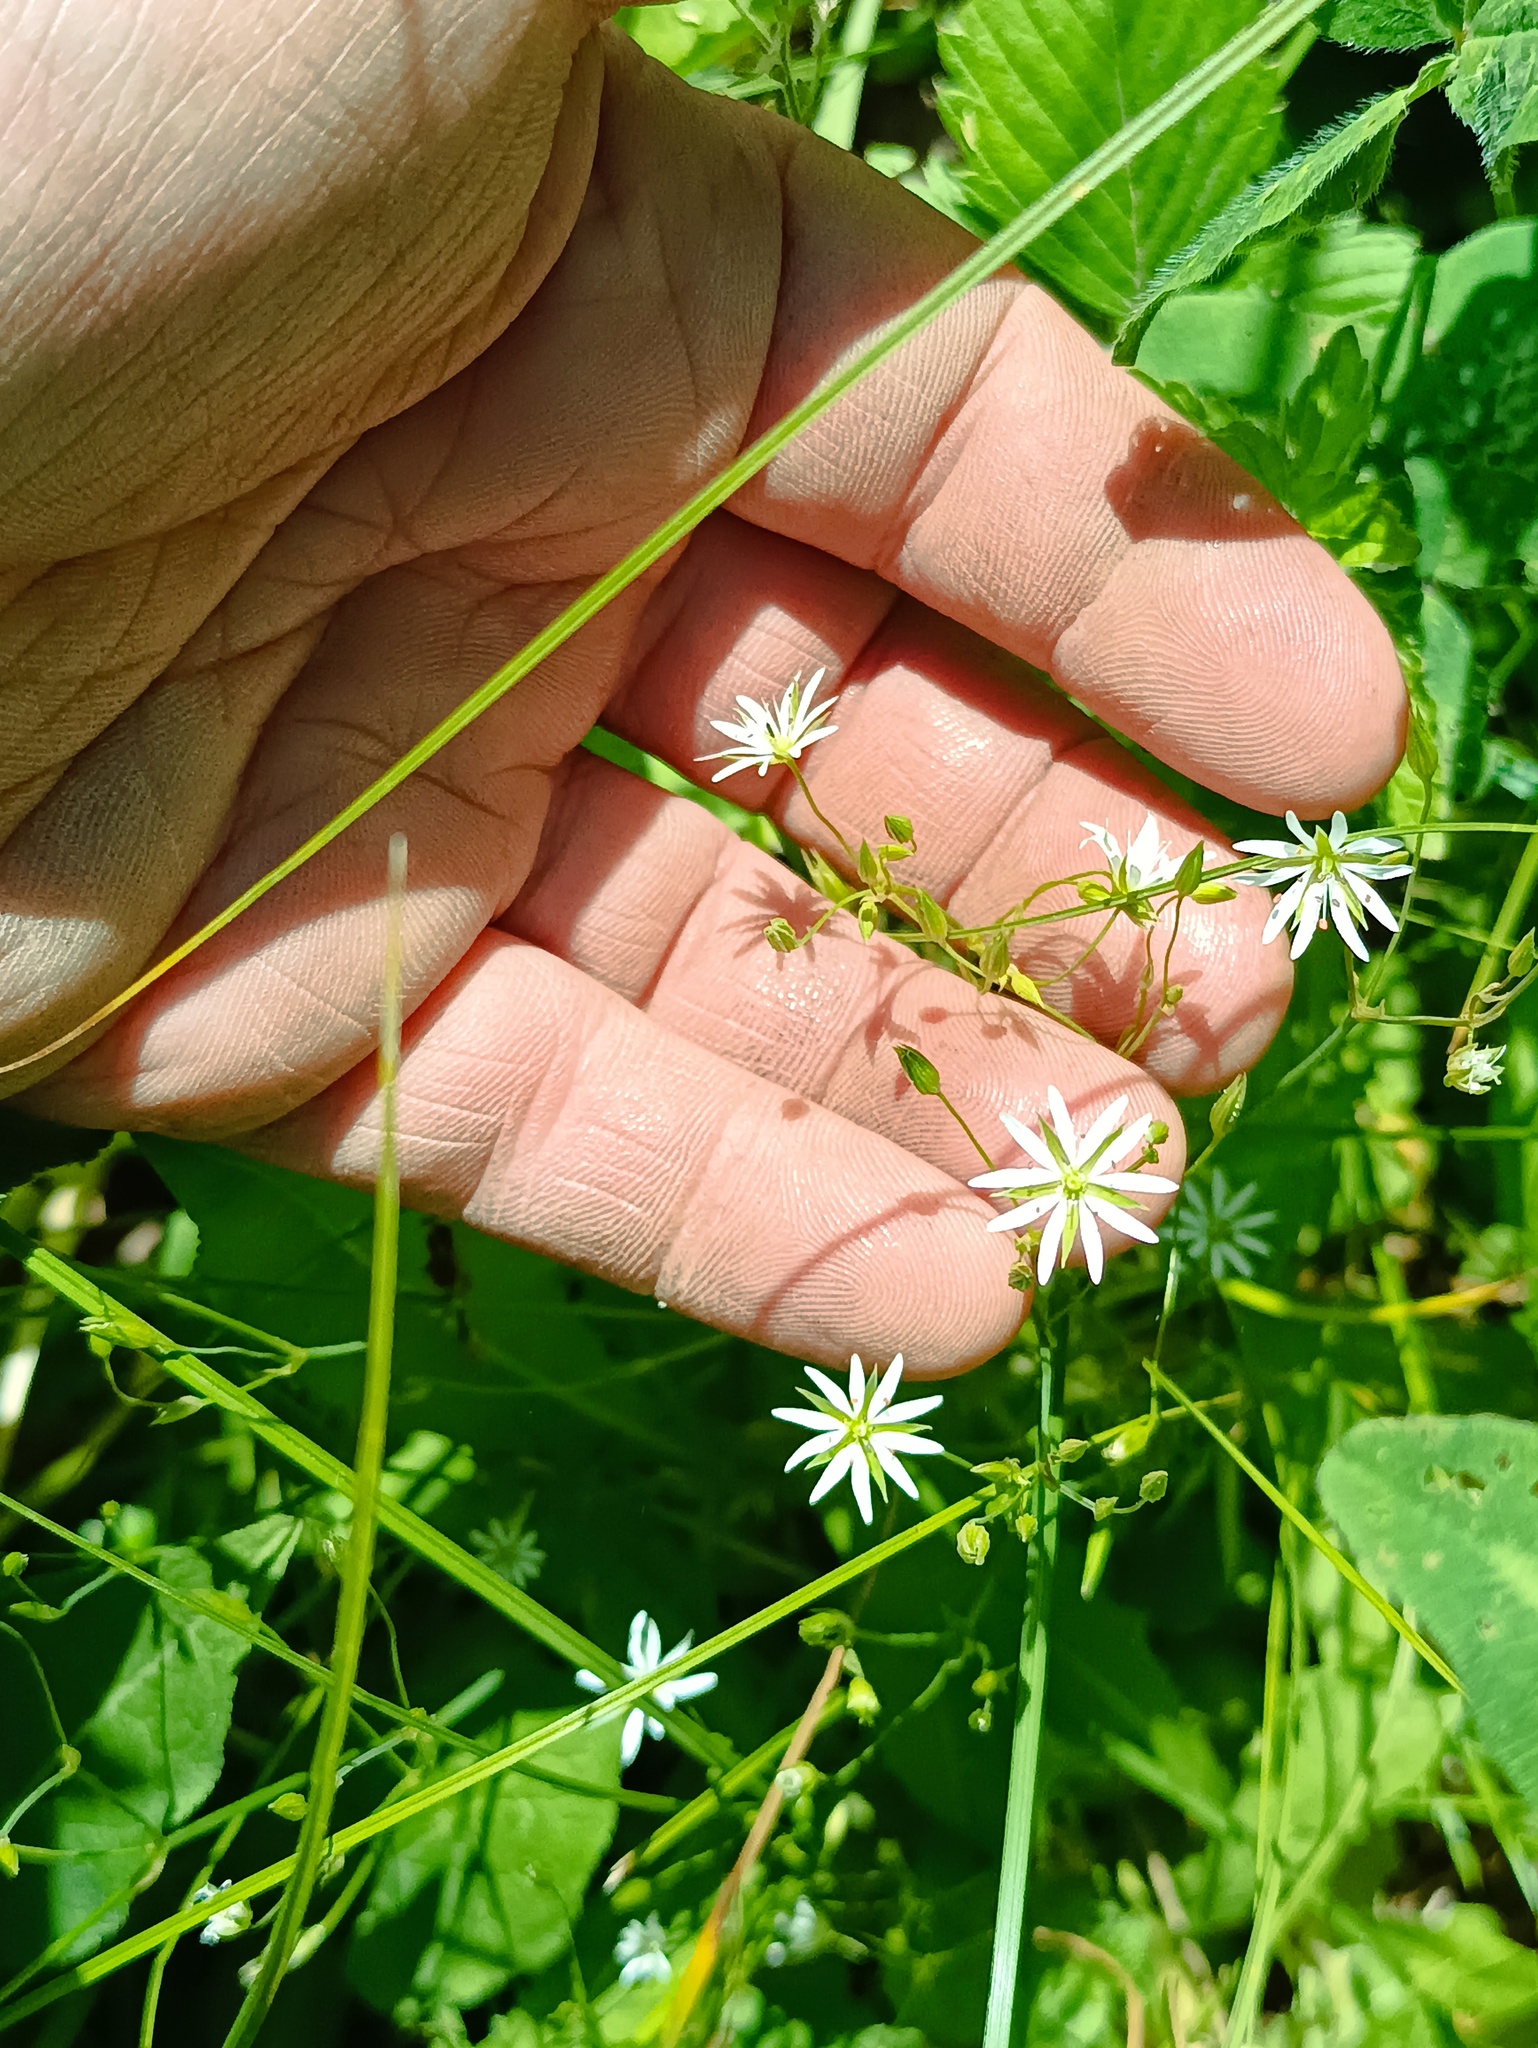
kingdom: Plantae
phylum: Tracheophyta
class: Magnoliopsida
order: Caryophyllales
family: Caryophyllaceae
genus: Stellaria
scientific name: Stellaria graminea
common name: Grass-like starwort
